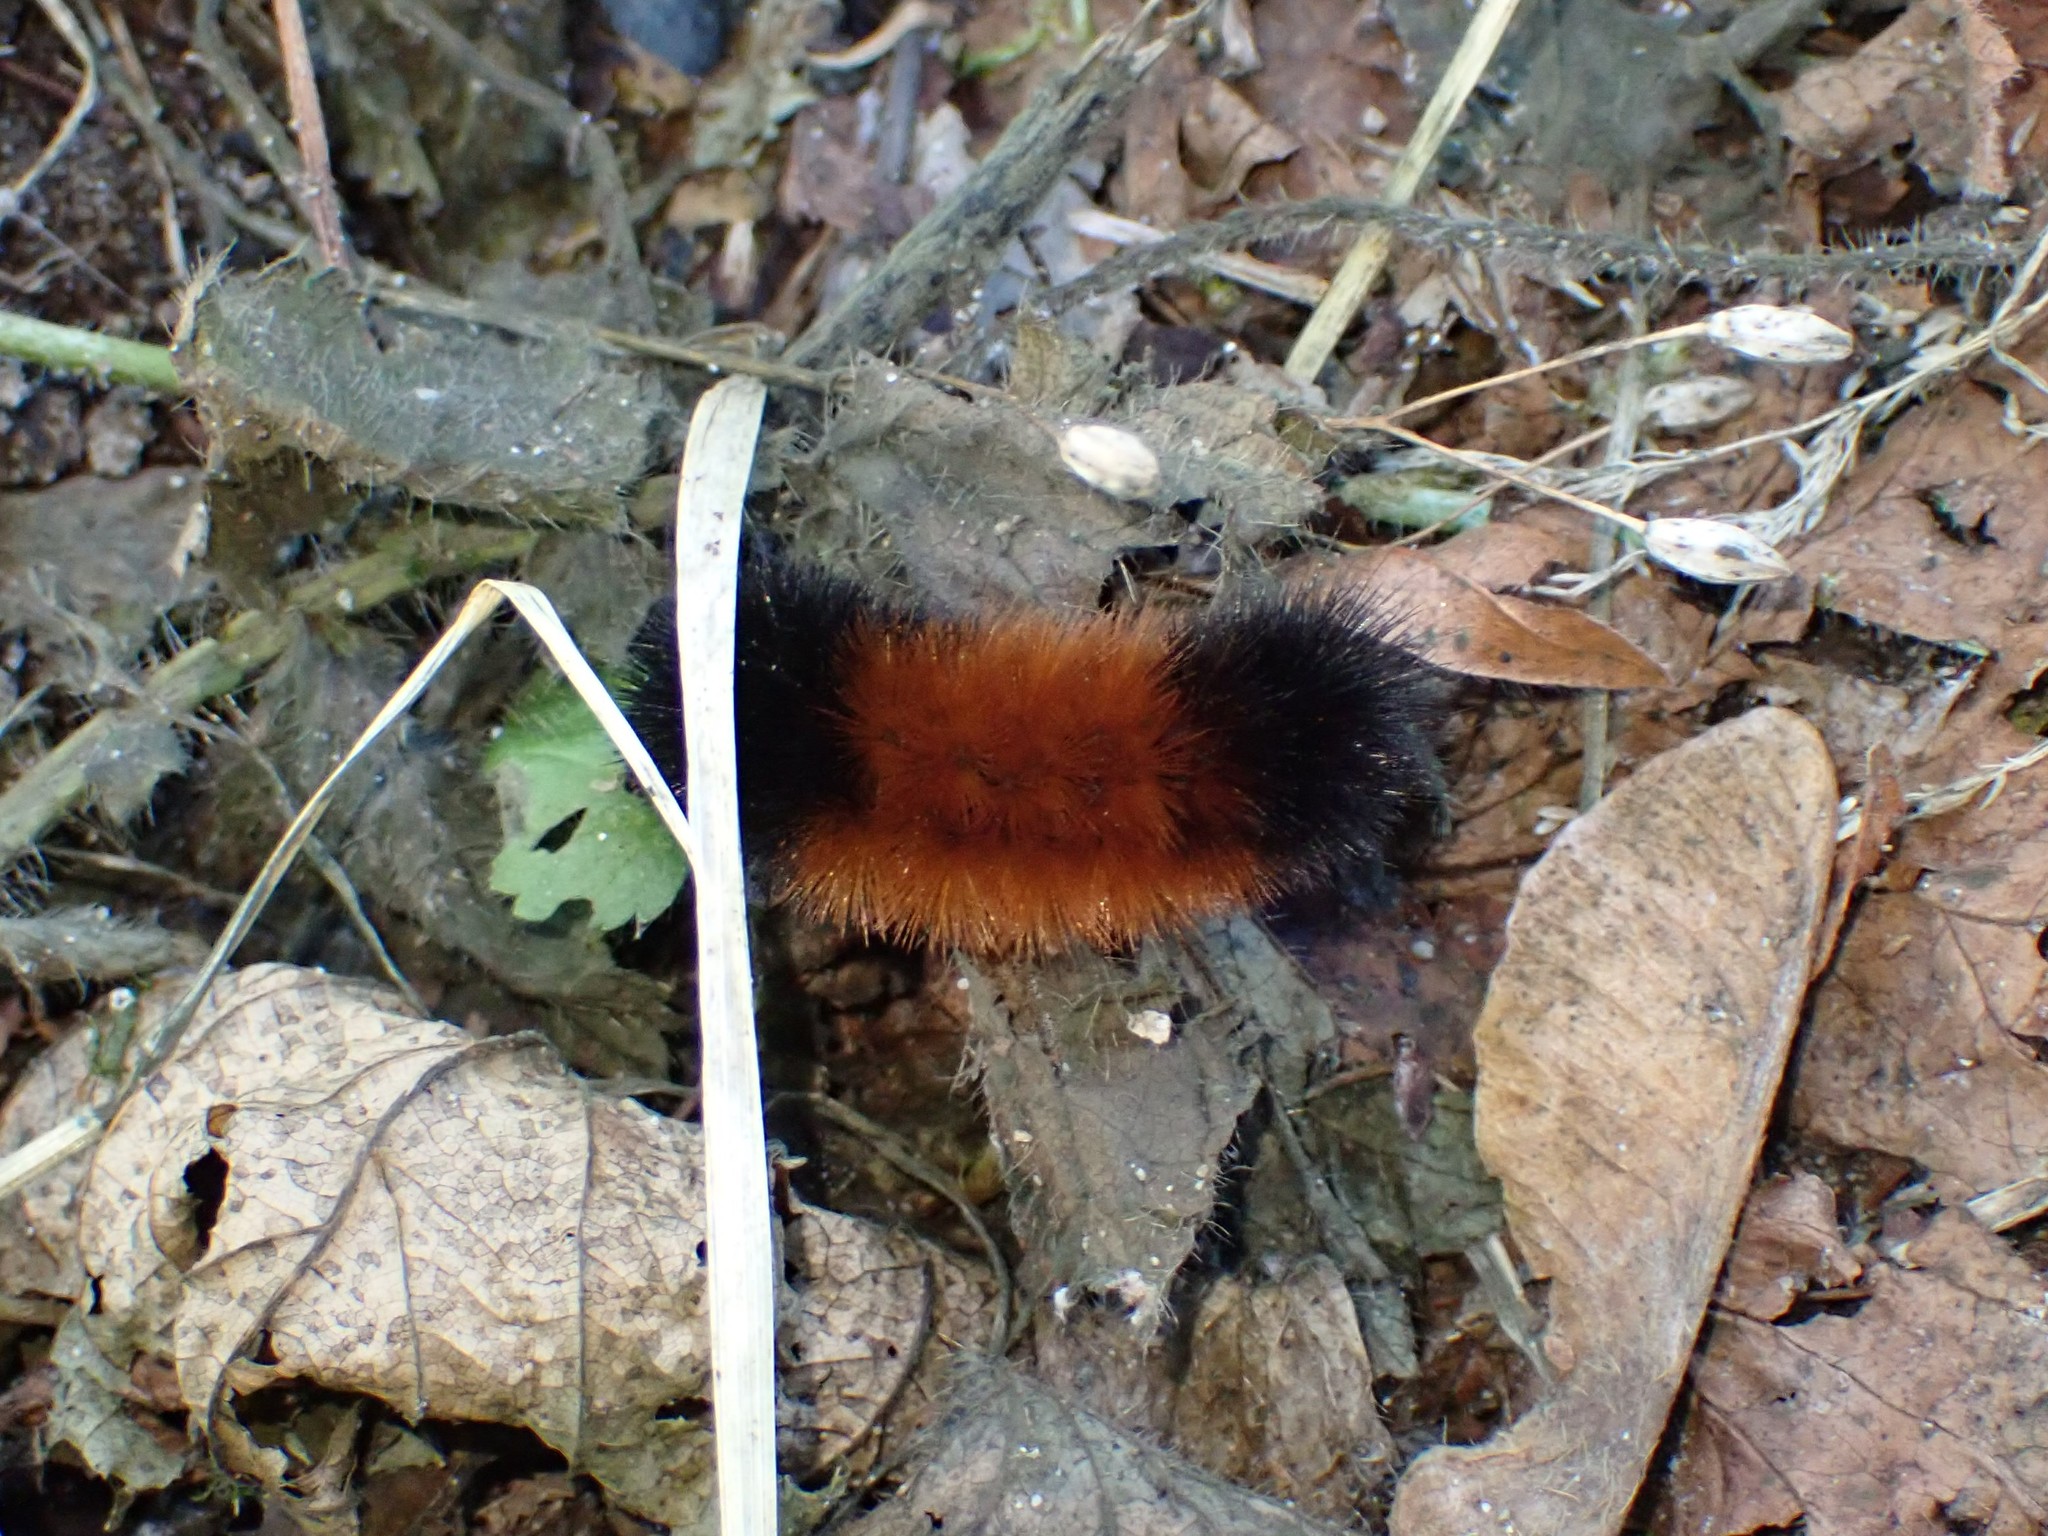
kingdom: Animalia
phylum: Arthropoda
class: Insecta
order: Lepidoptera
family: Erebidae
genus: Pyrrharctia
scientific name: Pyrrharctia isabella
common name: Isabella tiger moth
